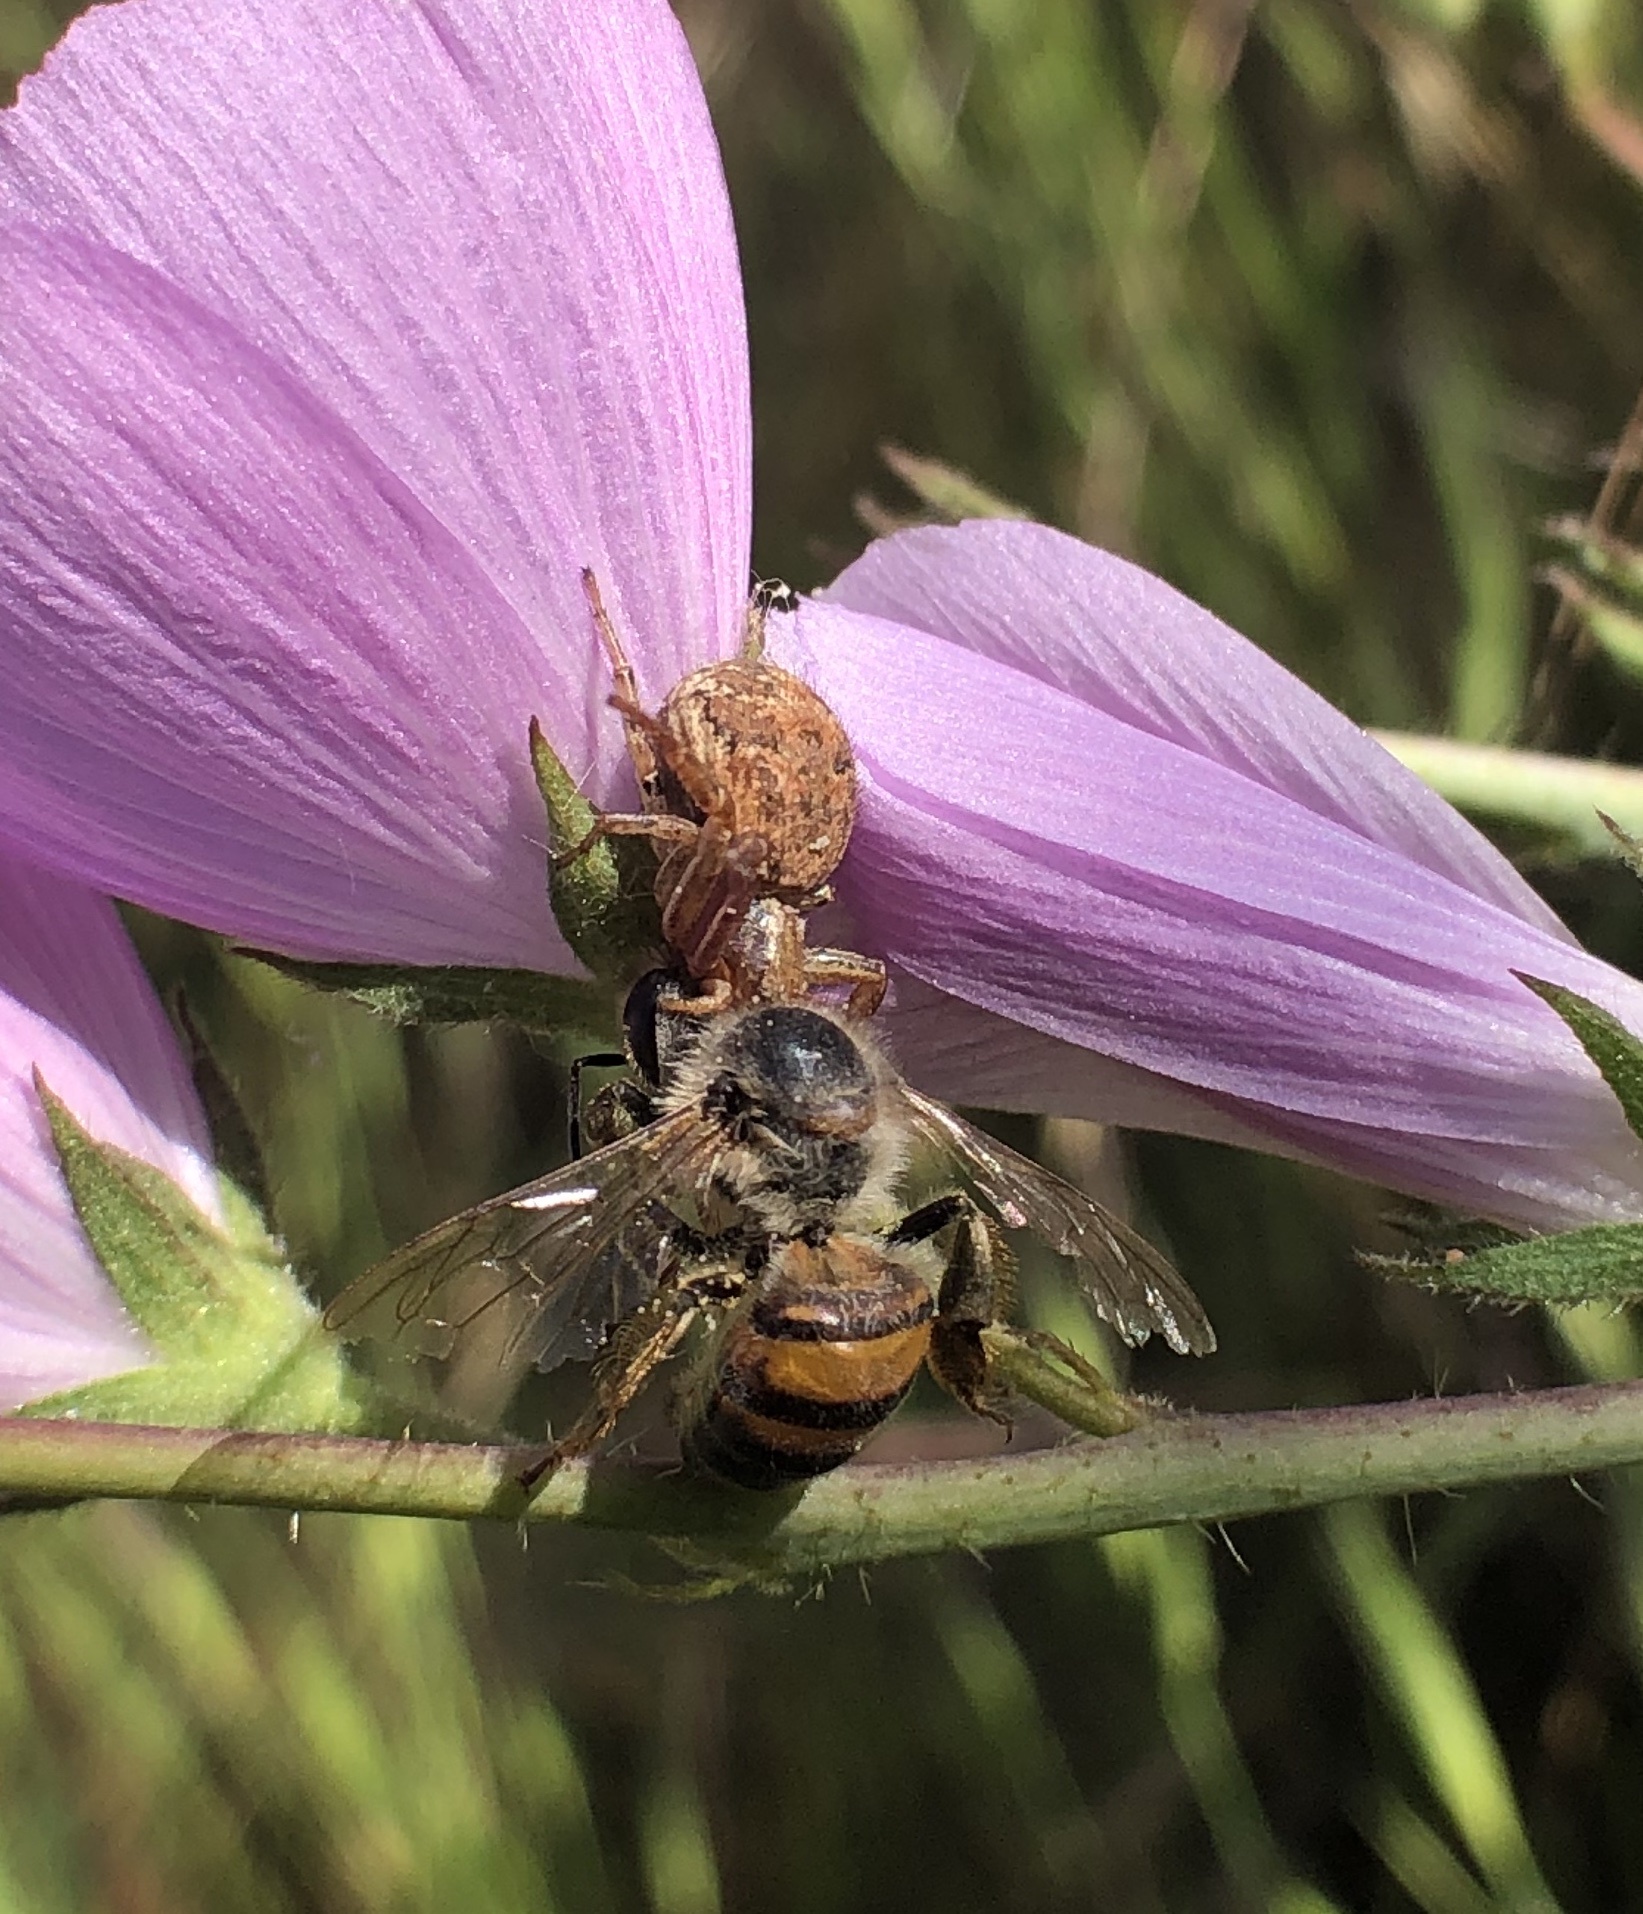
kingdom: Animalia
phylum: Arthropoda
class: Insecta
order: Hymenoptera
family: Apidae
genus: Apis
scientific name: Apis mellifera
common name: Honey bee
